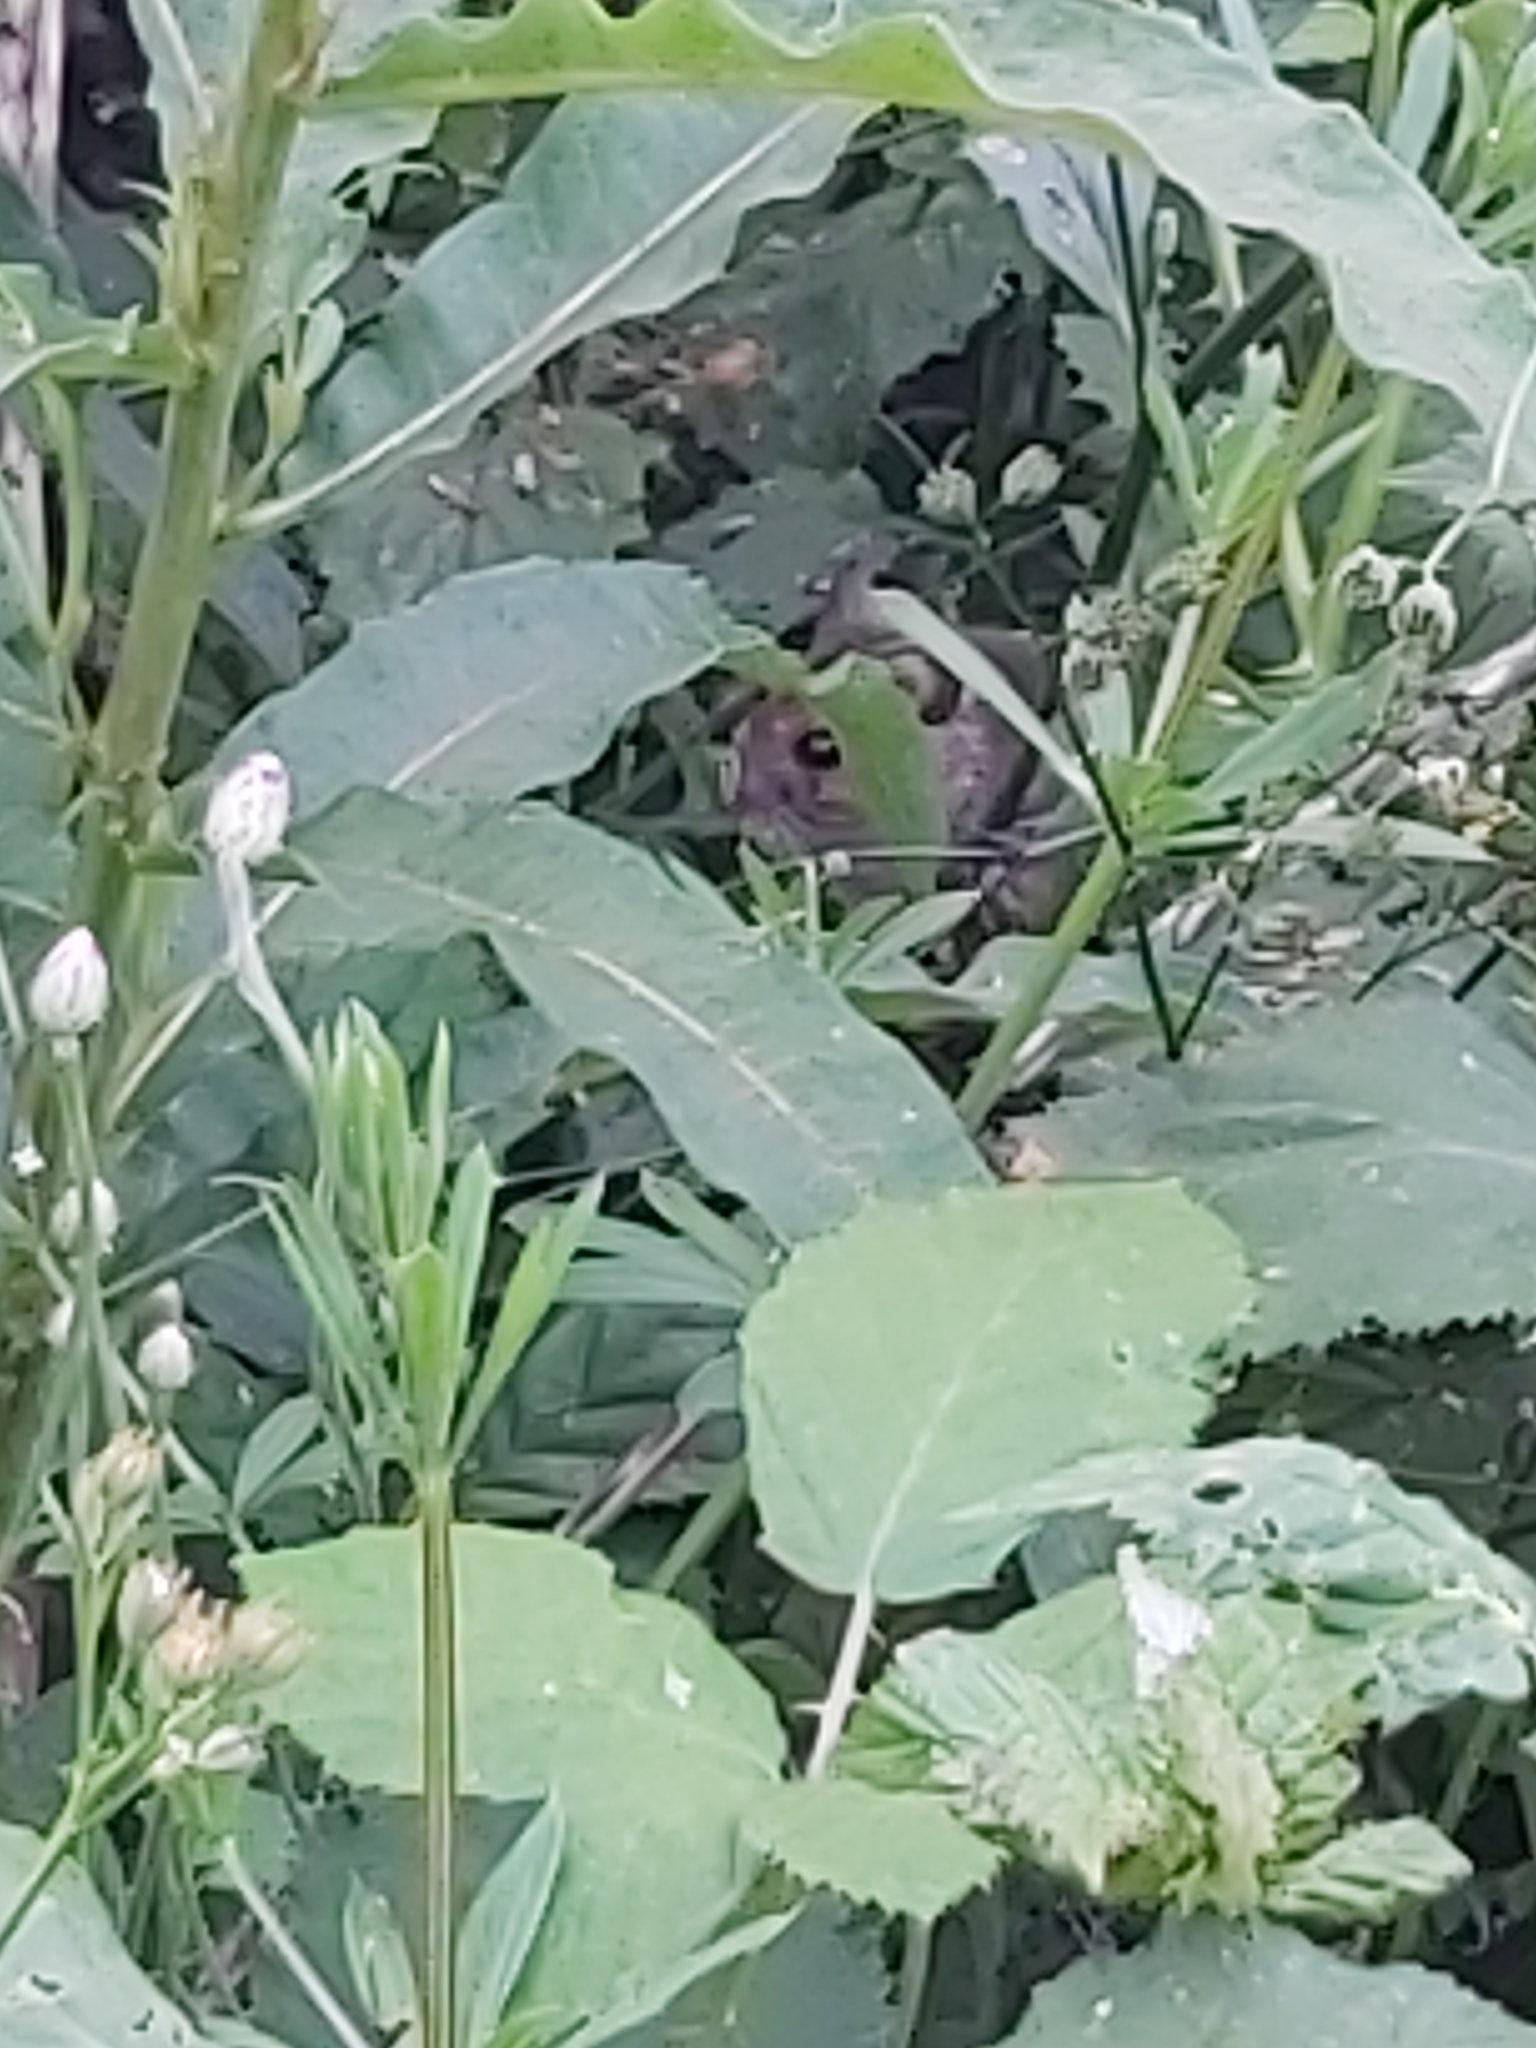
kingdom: Animalia
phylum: Chordata
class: Mammalia
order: Rodentia
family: Muridae
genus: Apodemus
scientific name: Apodemus sylvaticus
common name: Wood mouse
